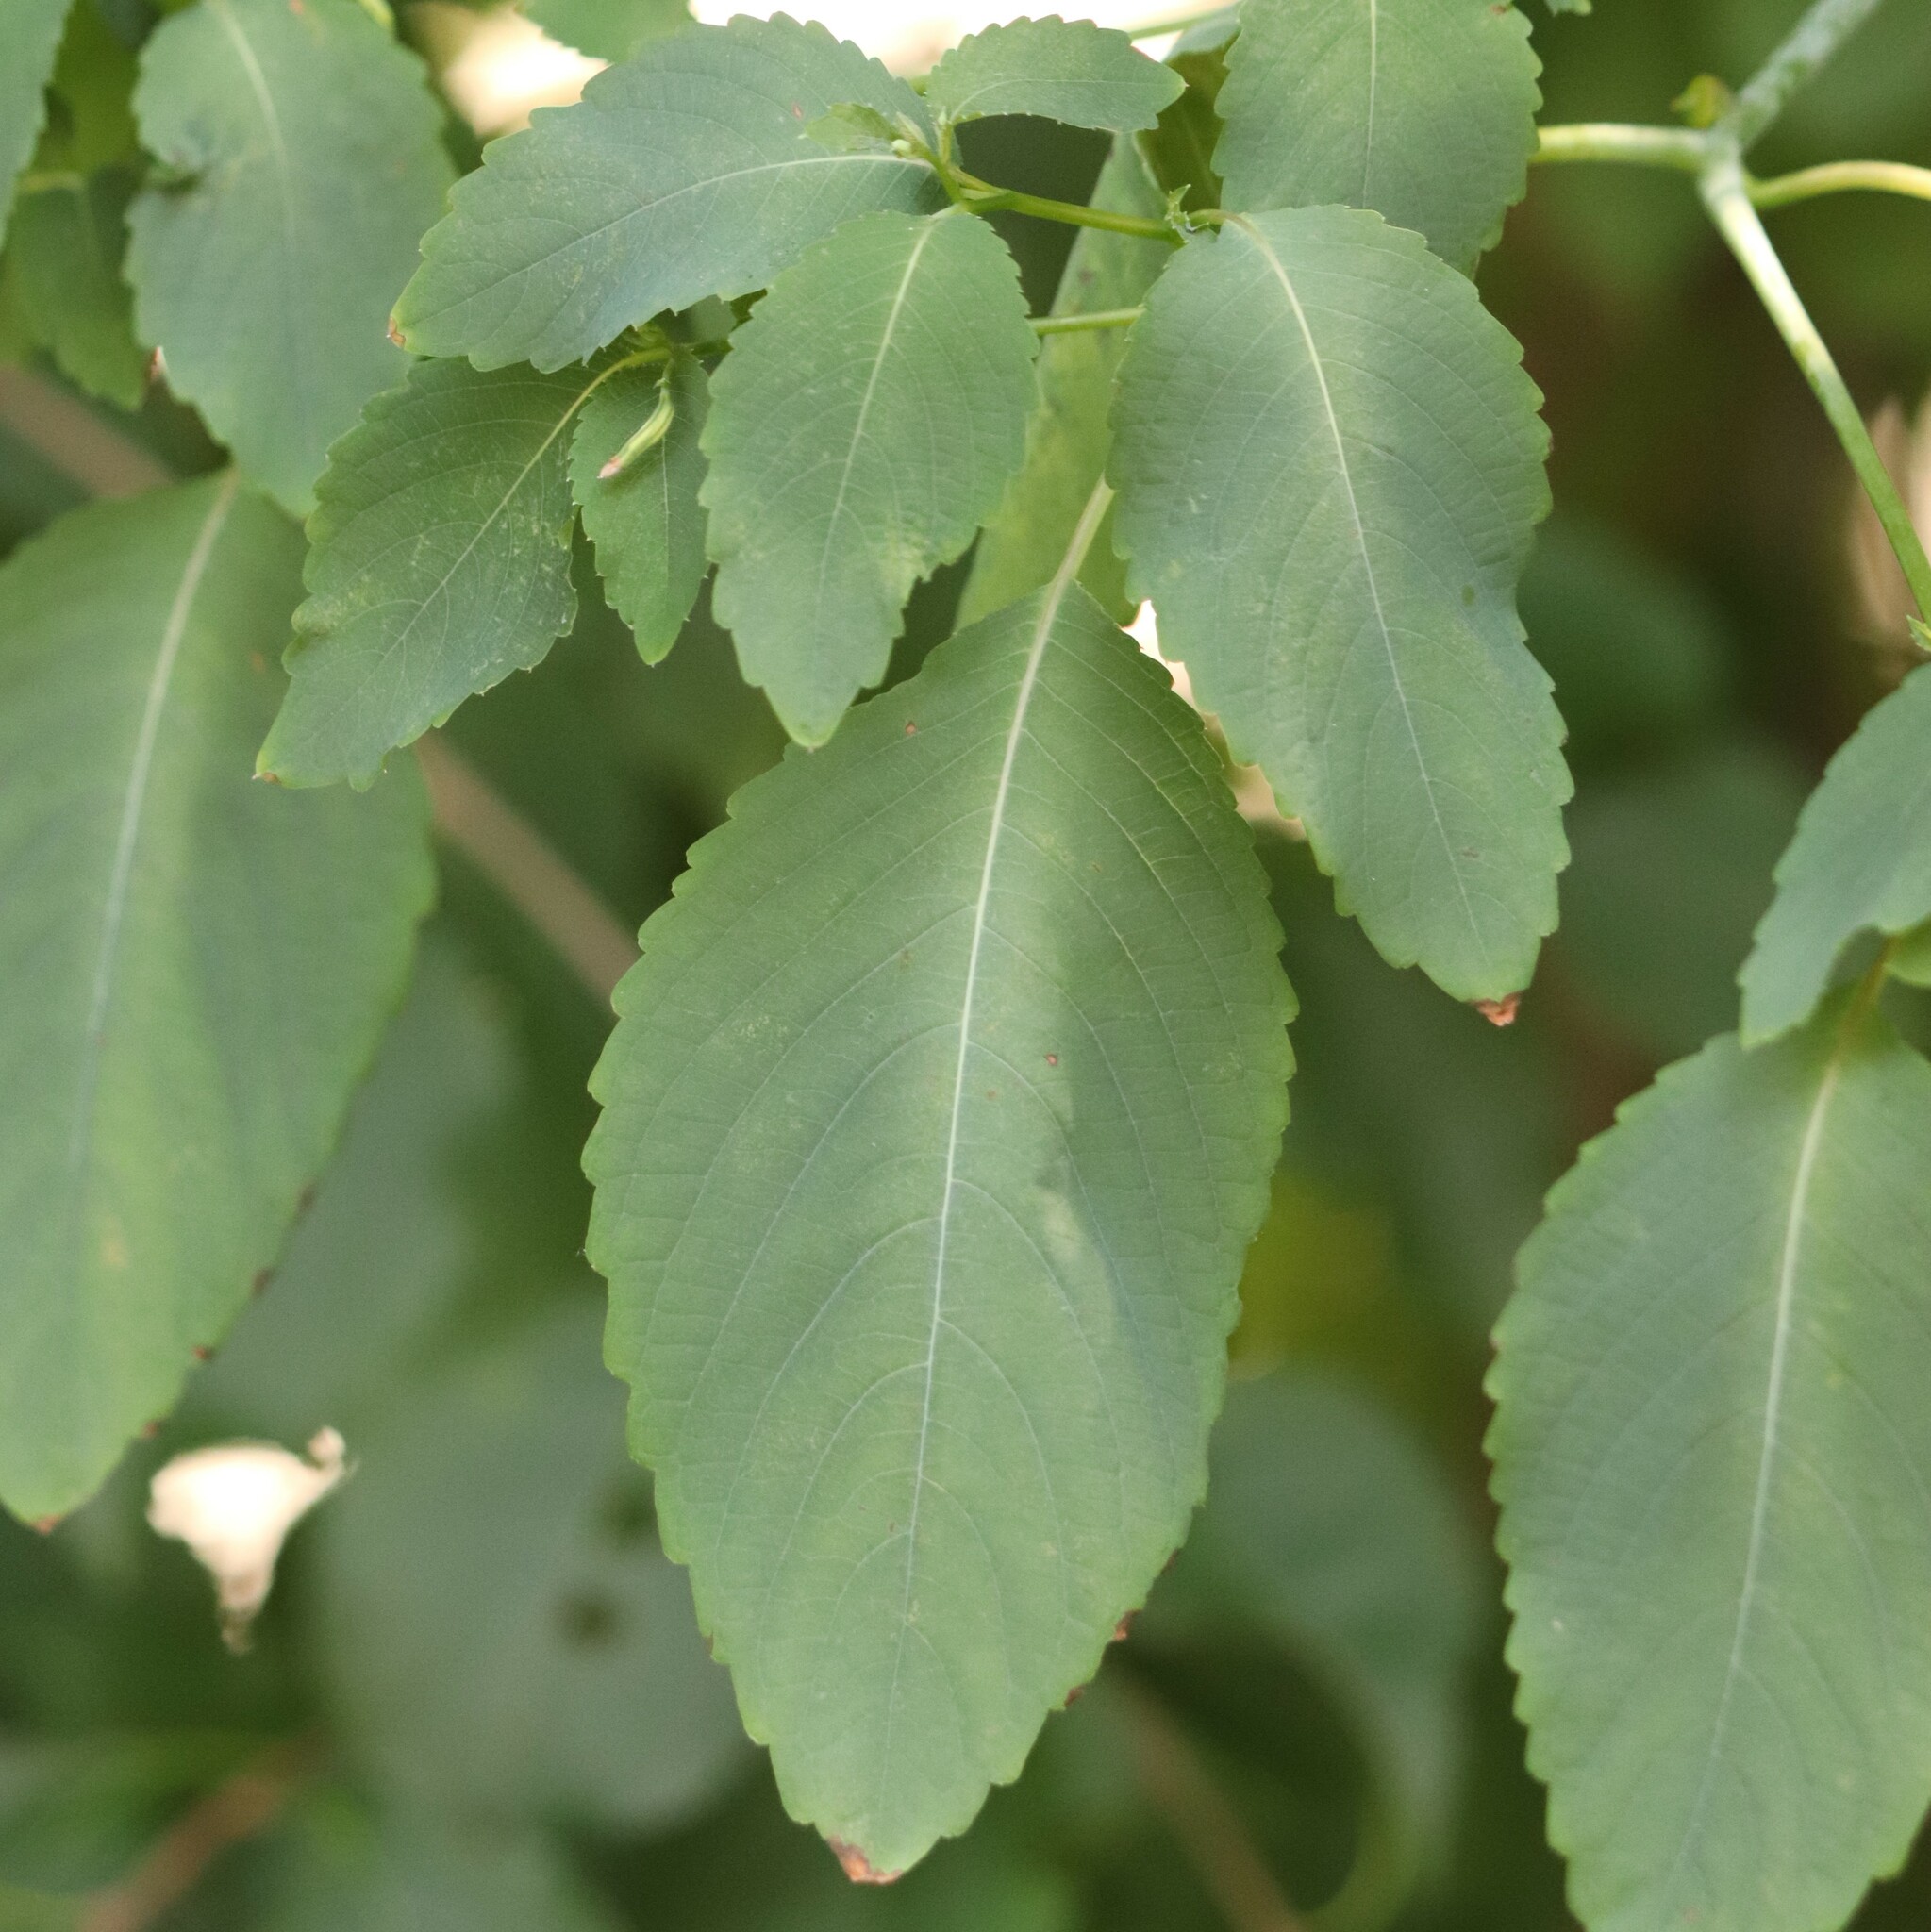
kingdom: Plantae
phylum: Tracheophyta
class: Magnoliopsida
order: Ericales
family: Balsaminaceae
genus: Impatiens
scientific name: Impatiens pallida
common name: Pale snapweed
